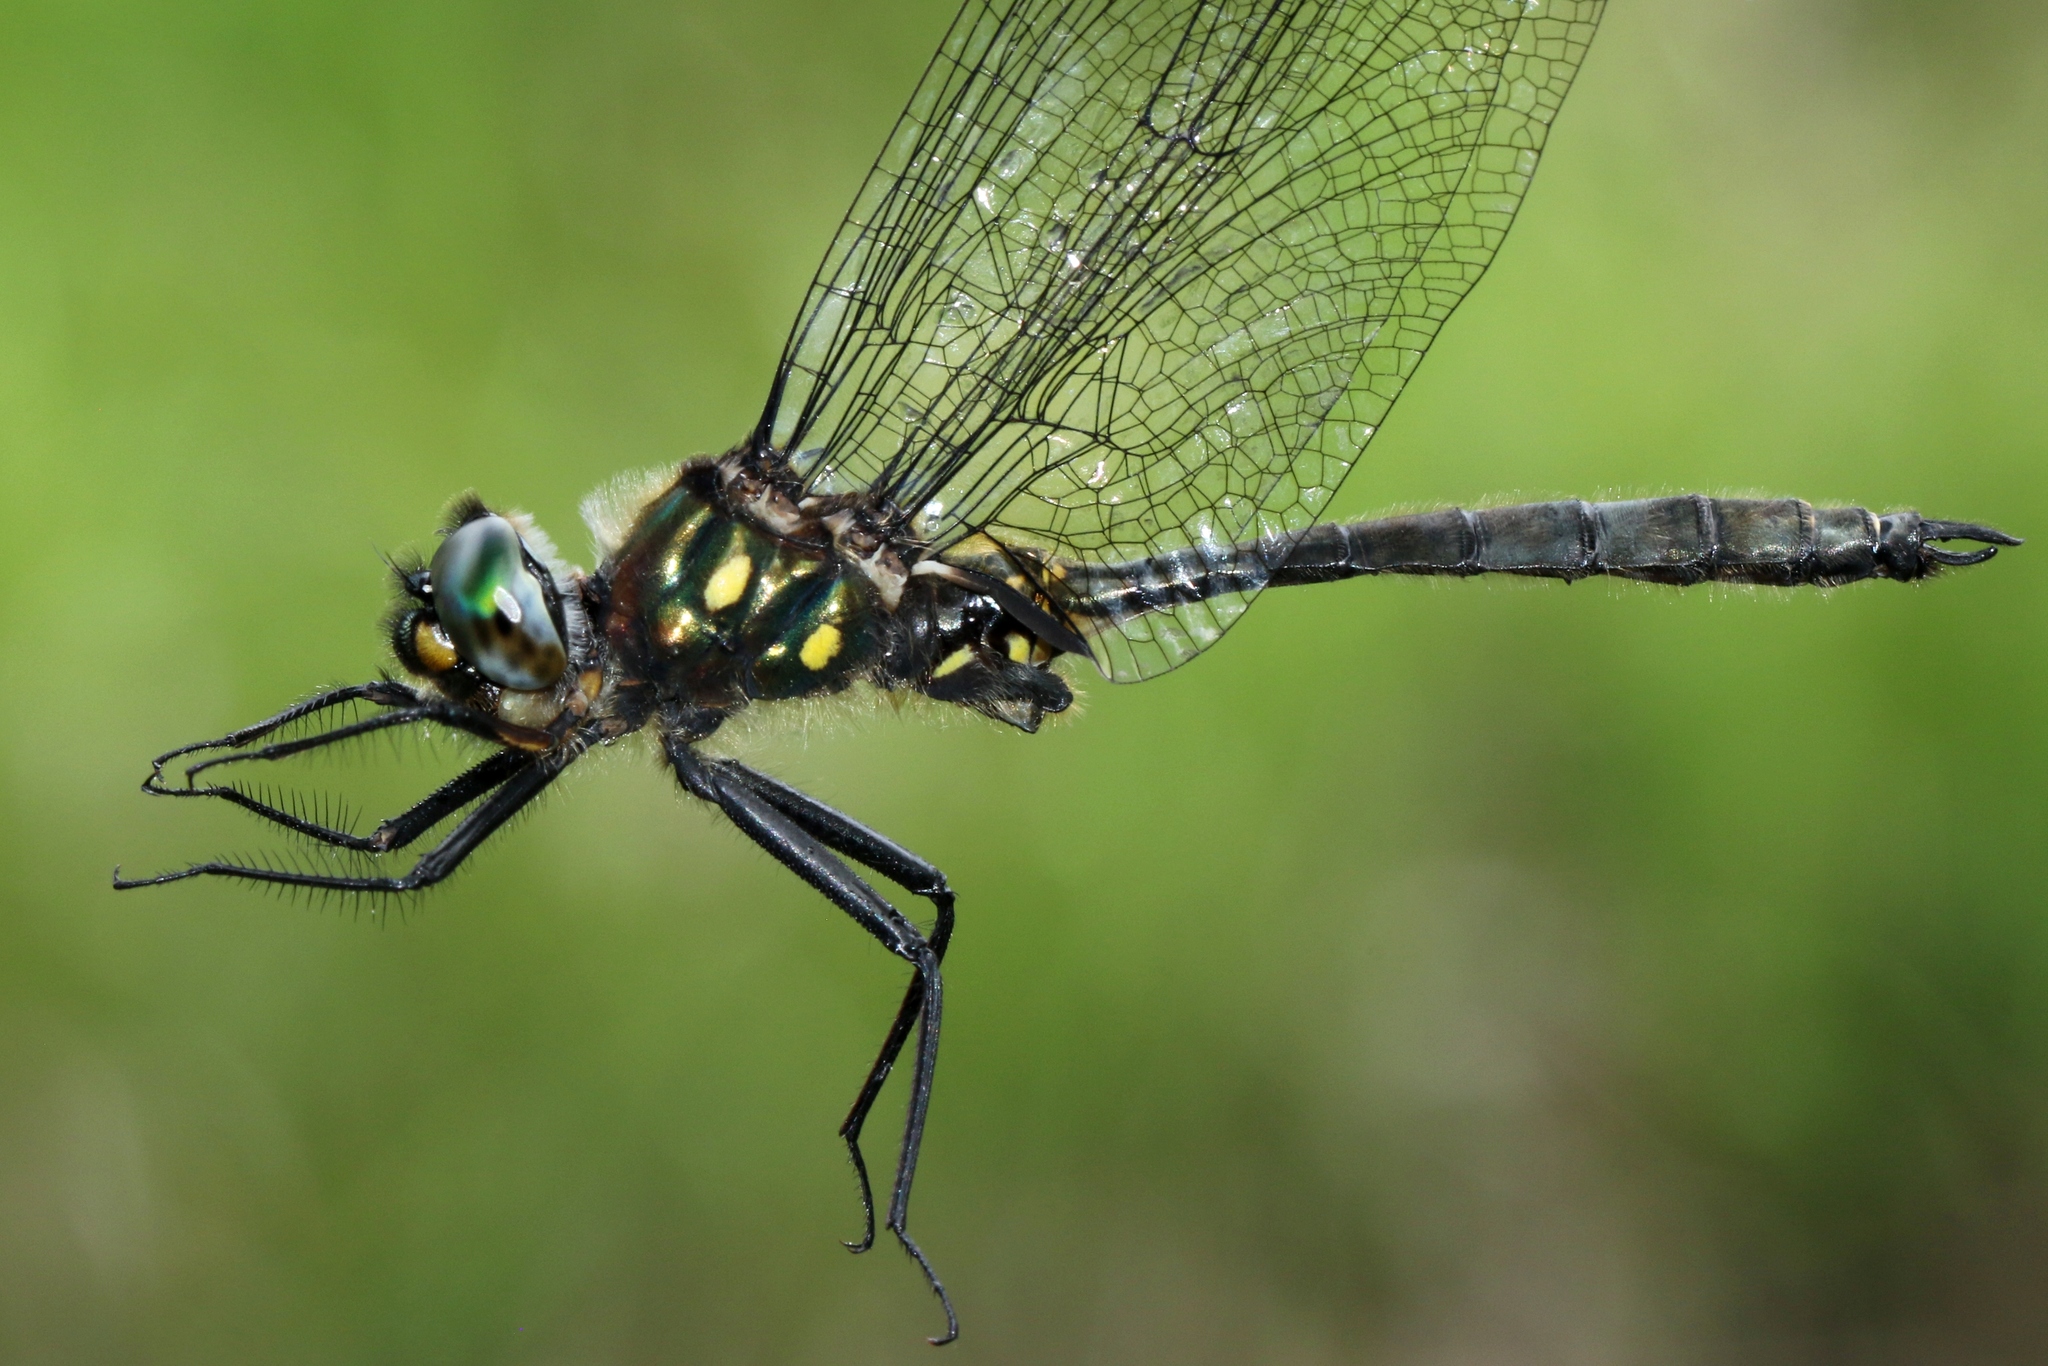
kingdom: Animalia
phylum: Arthropoda
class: Insecta
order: Odonata
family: Corduliidae
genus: Somatochlora
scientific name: Somatochlora minor
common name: Ocellated emerald
